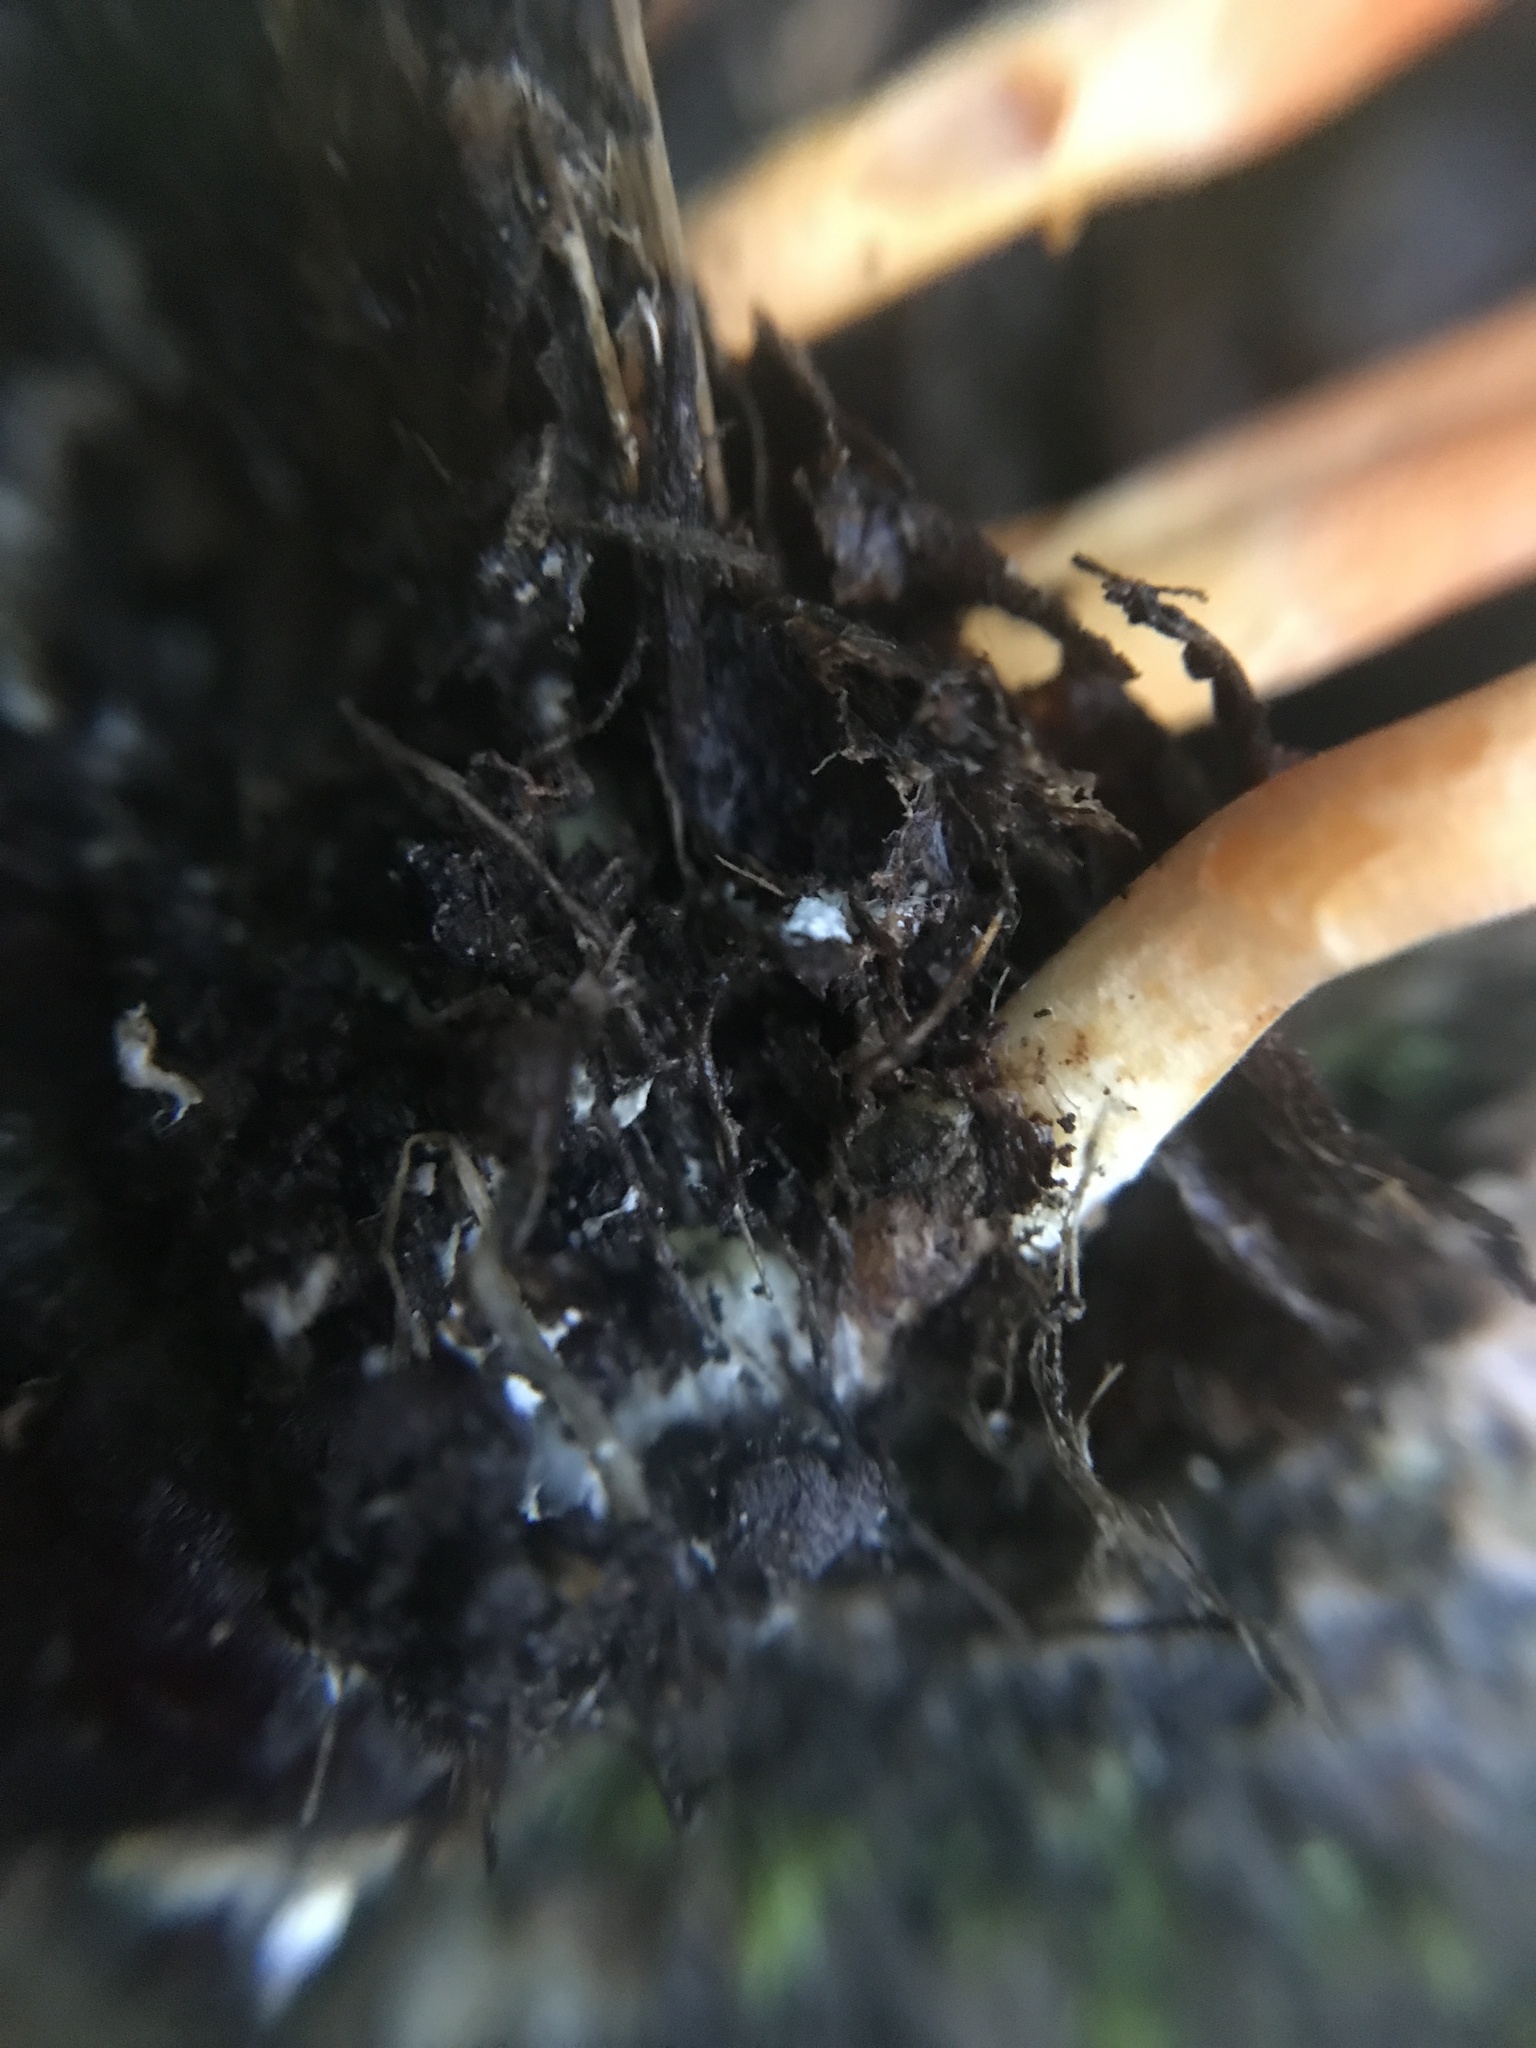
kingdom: Fungi
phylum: Ascomycota
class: Sordariomycetes
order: Hypocreales
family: Cordycipitaceae
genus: Cordyceps
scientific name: Cordyceps militaris
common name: Scarlet caterpillar fungus
